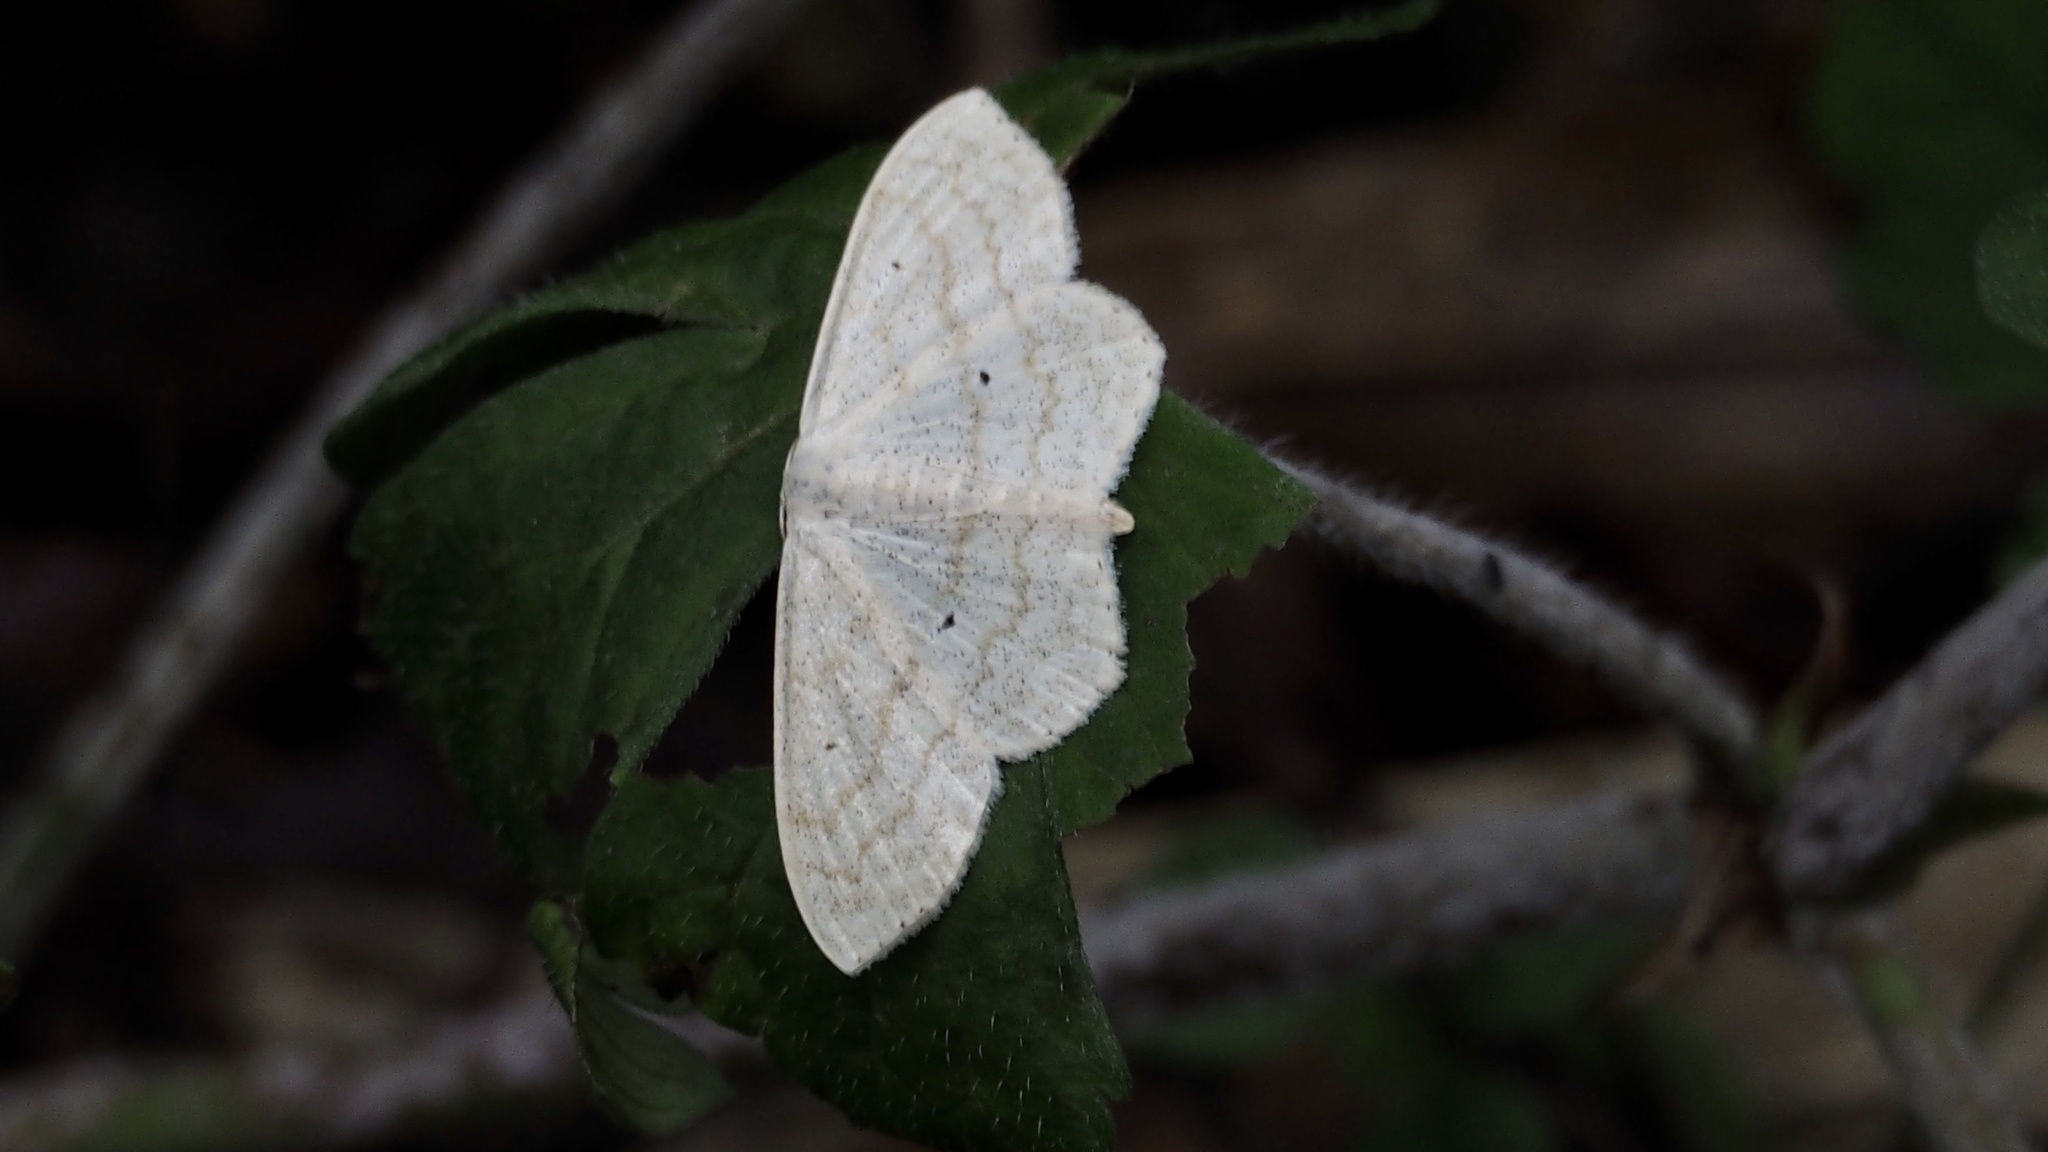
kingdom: Animalia
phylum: Arthropoda
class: Insecta
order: Lepidoptera
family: Geometridae
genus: Scopula
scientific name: Scopula ignobilis
